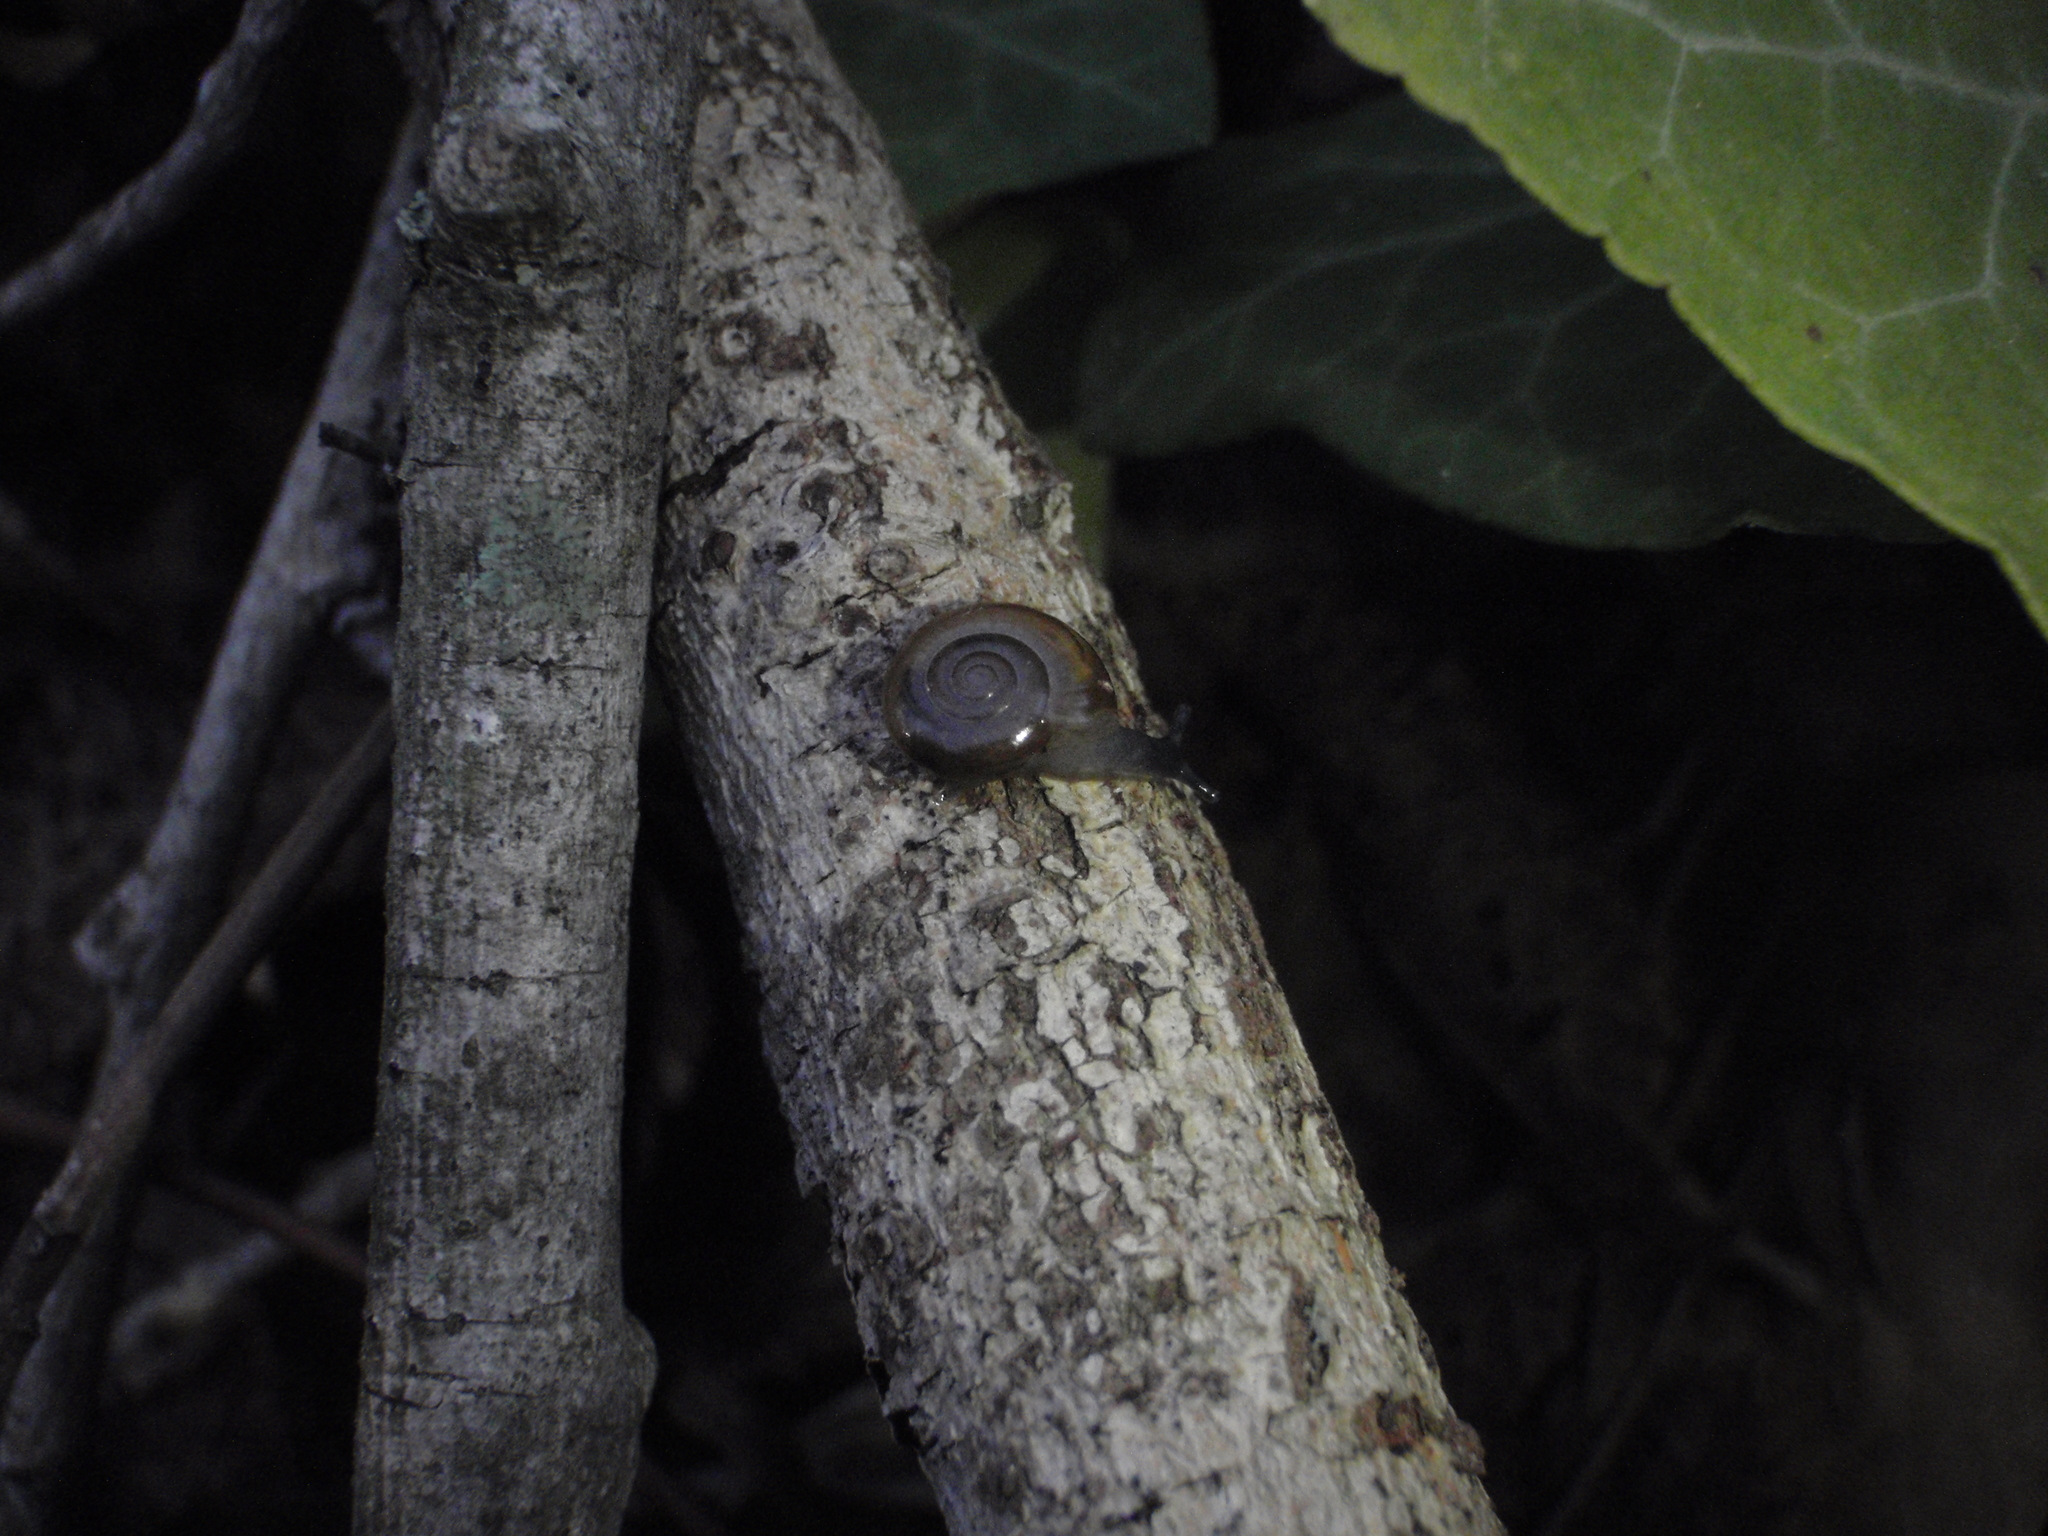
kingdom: Animalia
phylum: Mollusca
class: Gastropoda
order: Stylommatophora
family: Oxychilidae
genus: Oxychilus
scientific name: Oxychilus draparnaudi
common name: Draparnaud's glass snail
